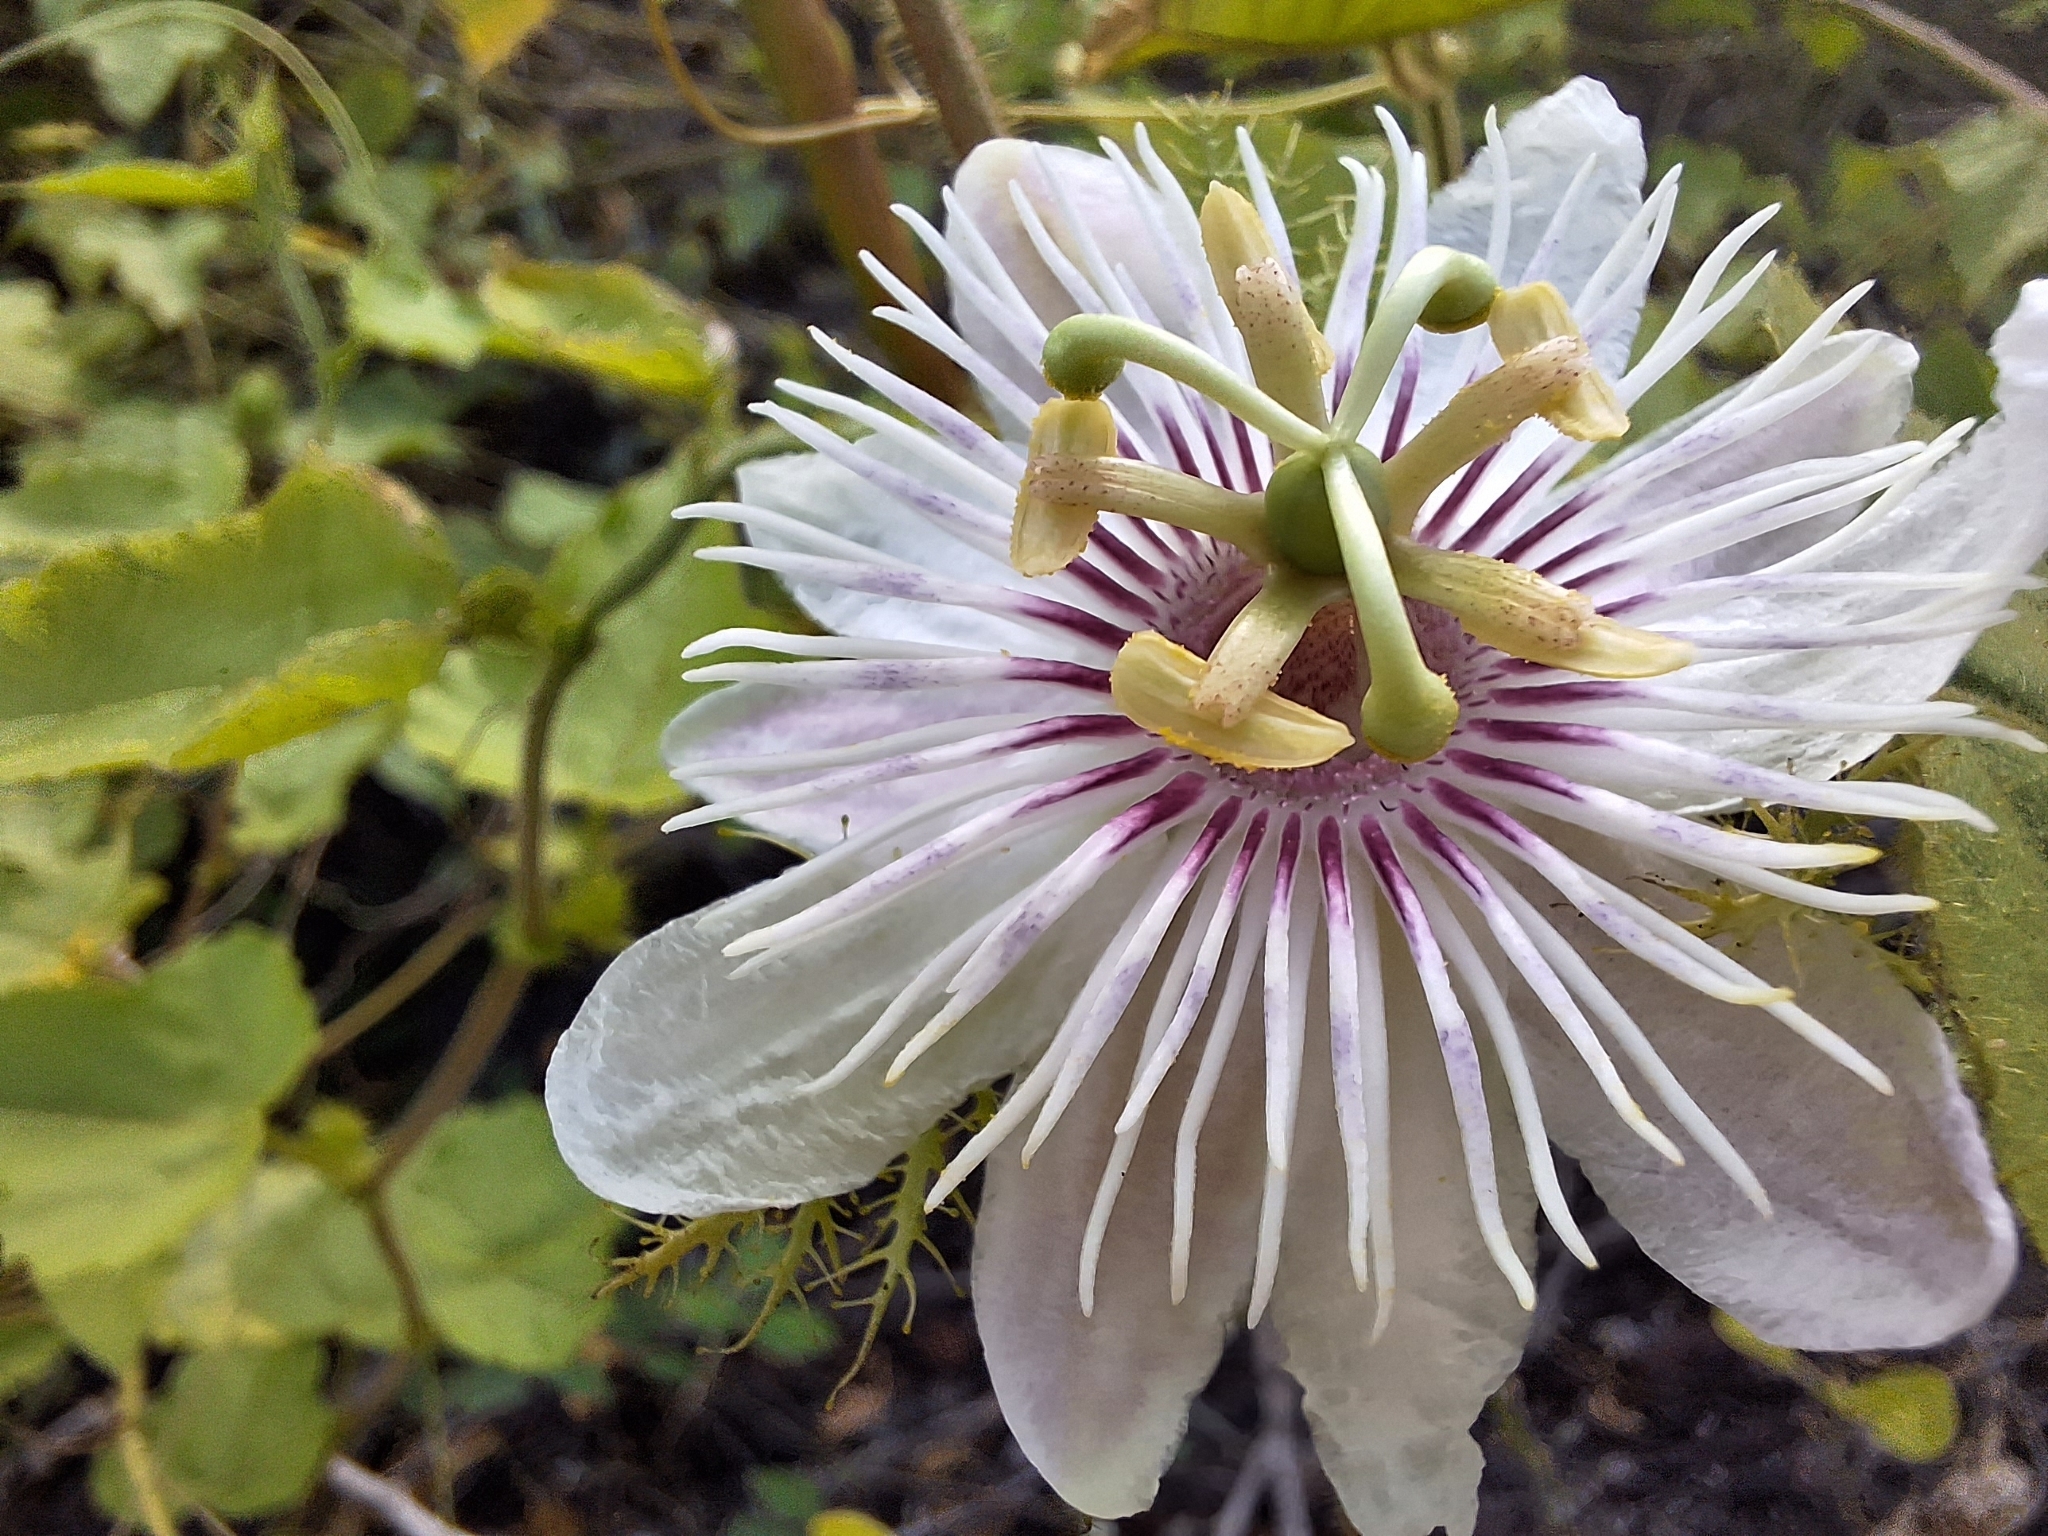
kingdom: Plantae
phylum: Tracheophyta
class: Magnoliopsida
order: Malpighiales
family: Passifloraceae
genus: Passiflora
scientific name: Passiflora vesicaria
